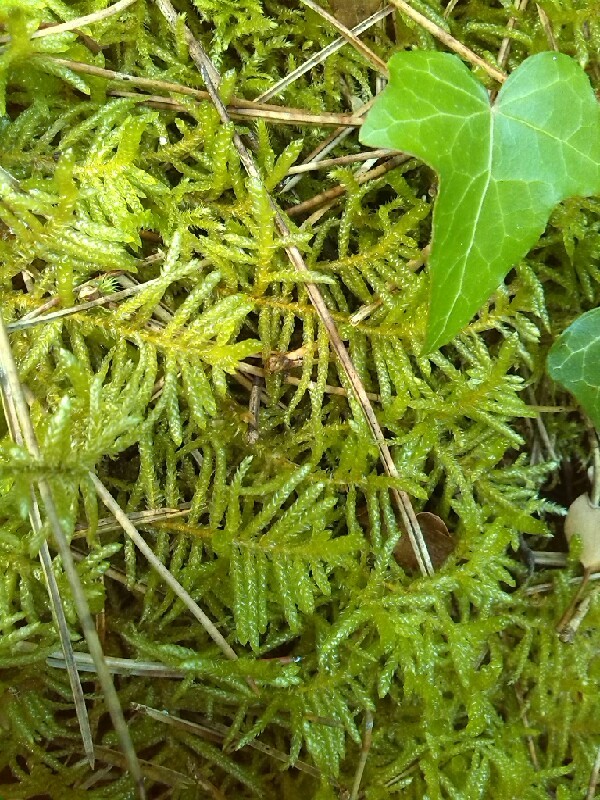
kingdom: Plantae
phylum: Bryophyta
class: Bryopsida
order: Hypnales
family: Brachytheciaceae
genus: Pseudoscleropodium
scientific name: Pseudoscleropodium purum
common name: Neat feather-moss
